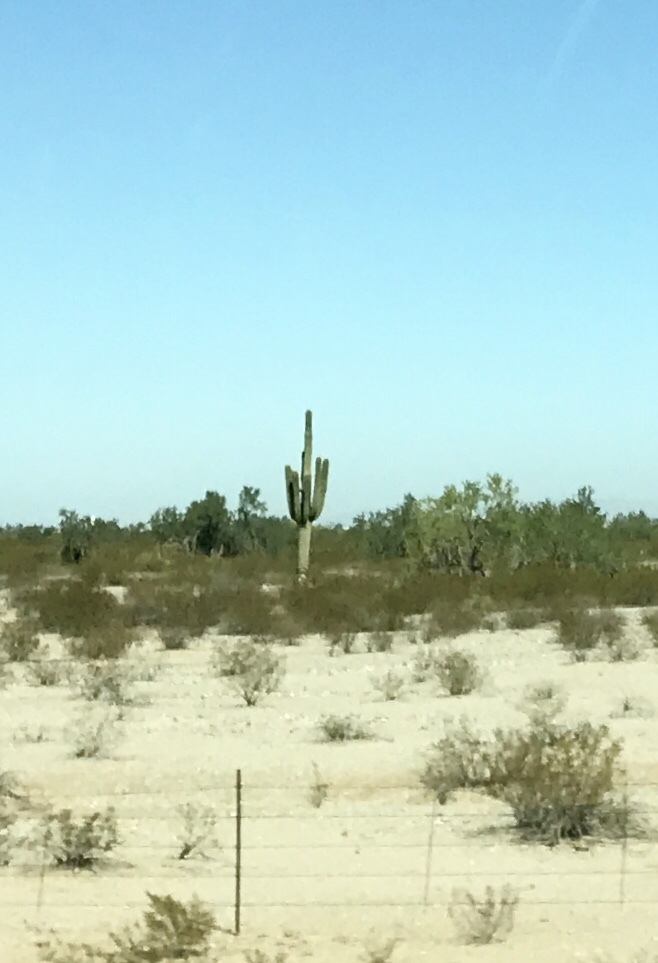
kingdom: Plantae
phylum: Tracheophyta
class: Magnoliopsida
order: Caryophyllales
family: Cactaceae
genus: Carnegiea
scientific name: Carnegiea gigantea
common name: Saguaro
